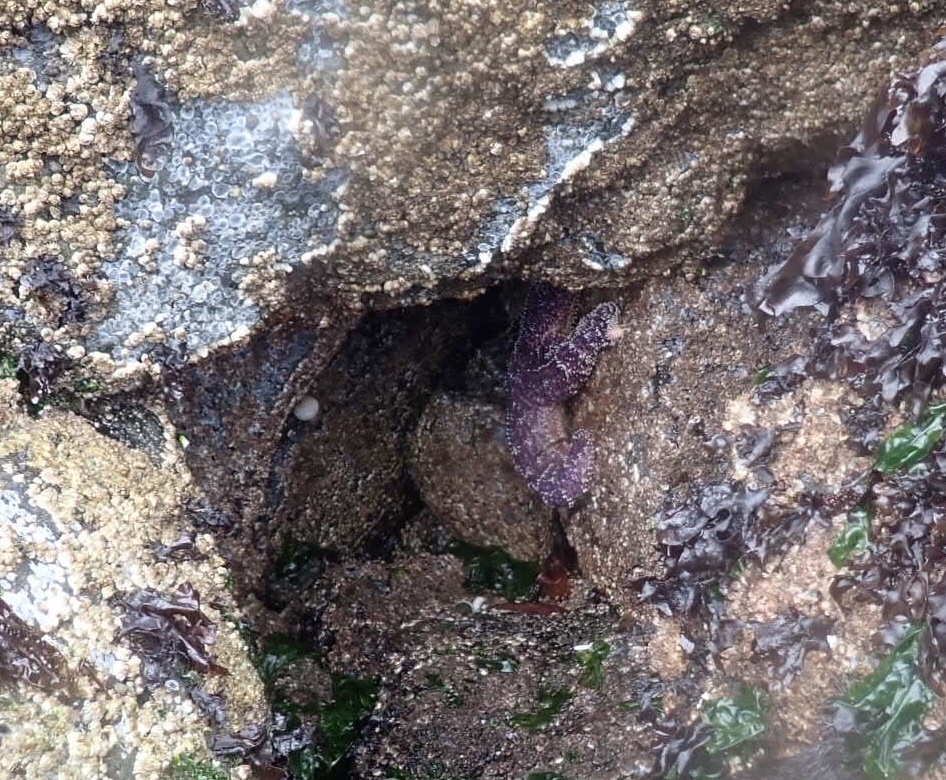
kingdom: Animalia
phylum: Echinodermata
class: Asteroidea
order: Forcipulatida
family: Asteriidae
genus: Pisaster
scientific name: Pisaster ochraceus
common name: Ochre stars
